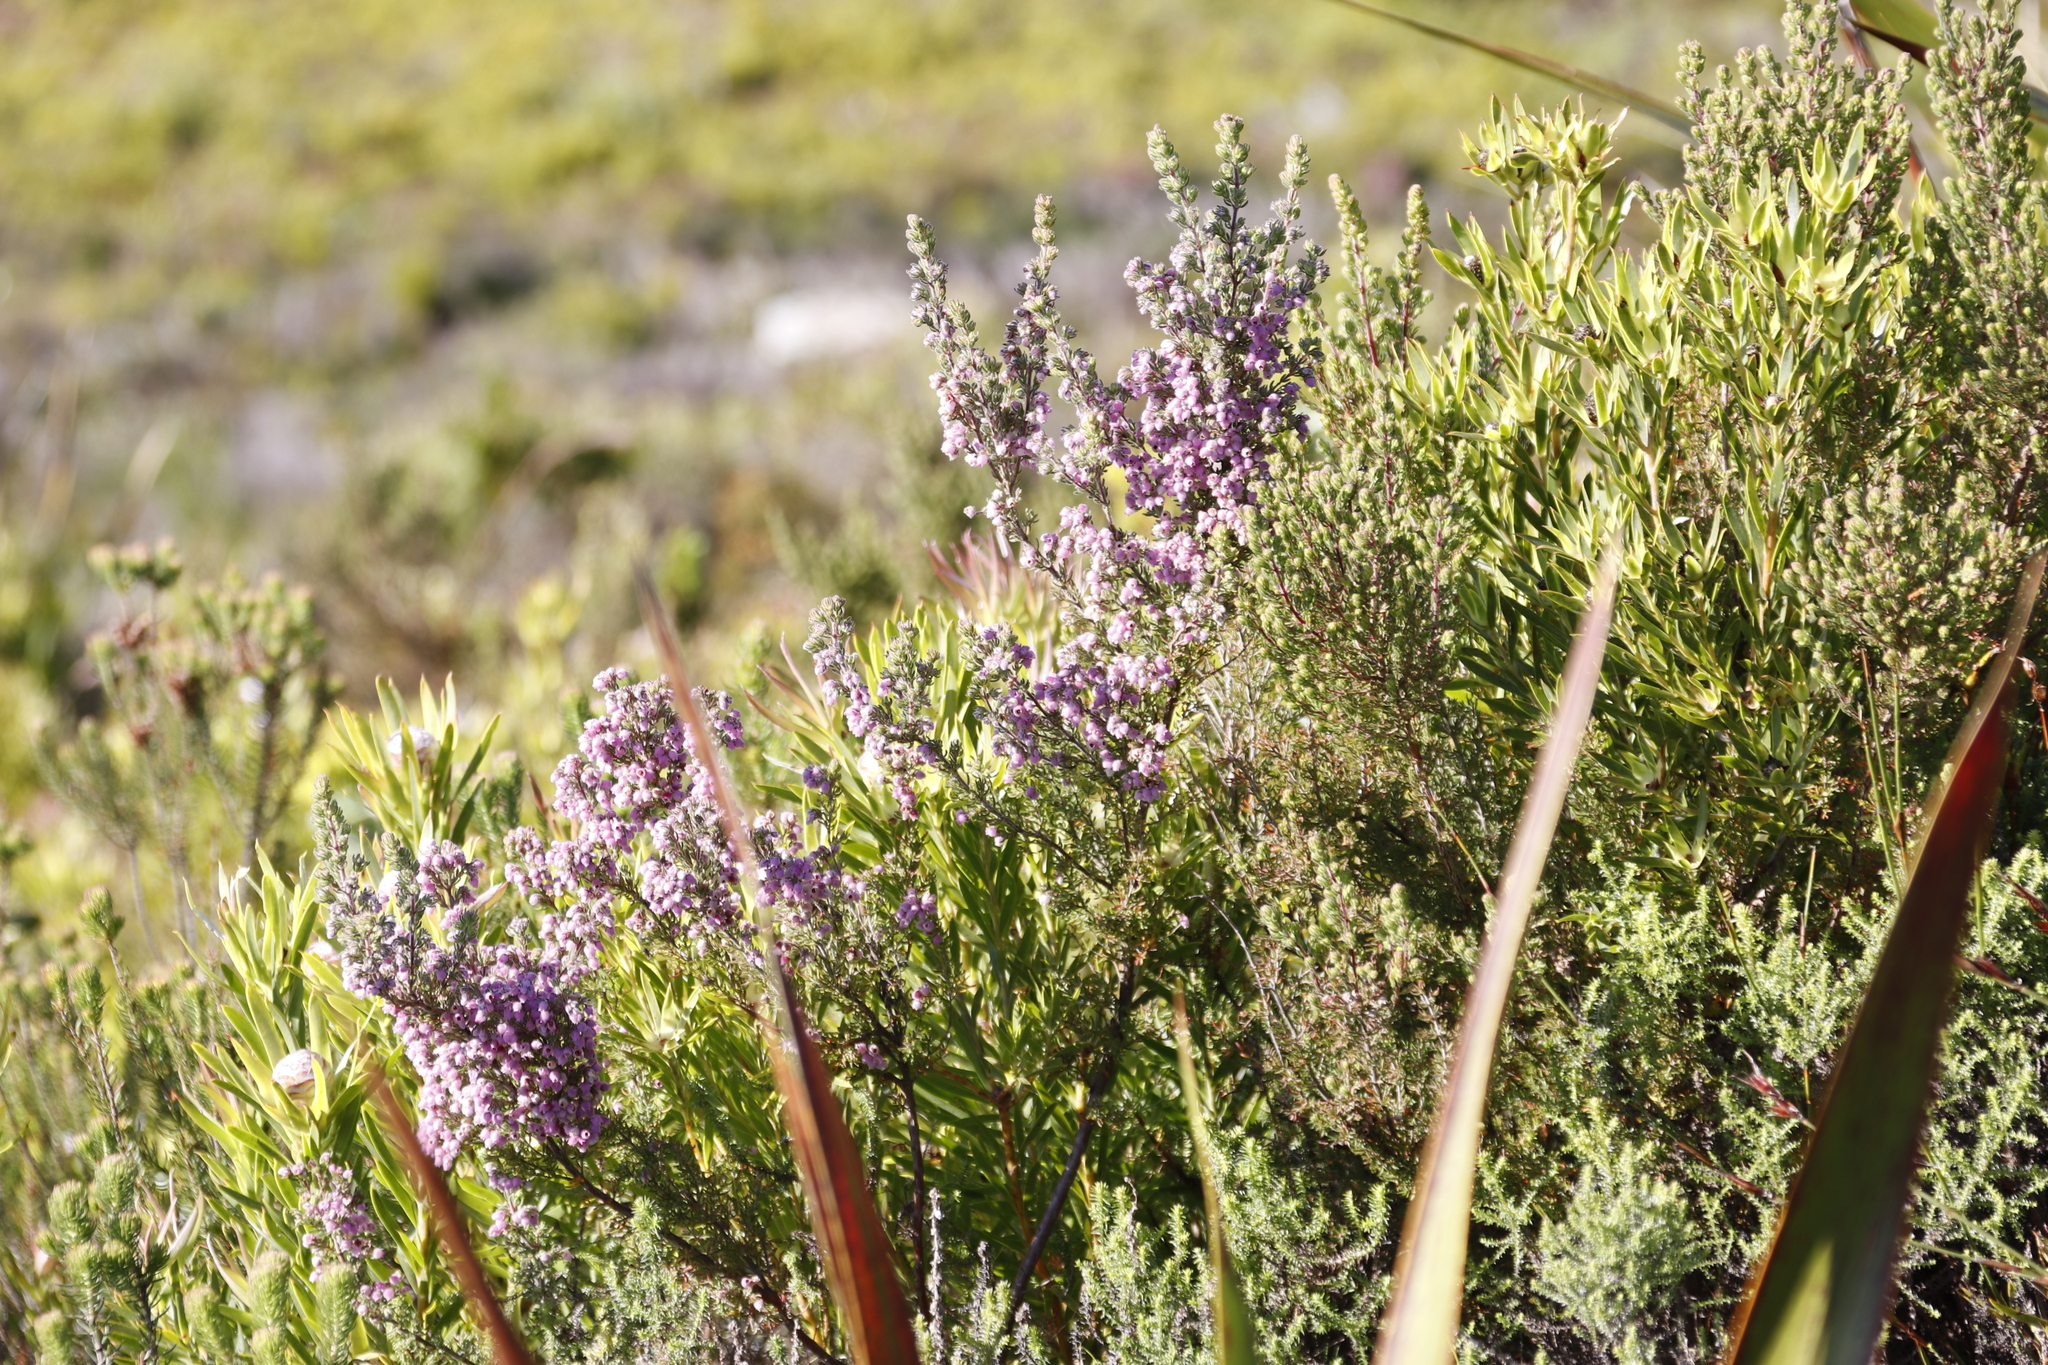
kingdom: Plantae
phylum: Tracheophyta
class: Magnoliopsida
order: Proteales
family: Proteaceae
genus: Leucadendron
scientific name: Leucadendron xanthoconus
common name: Sickle-leaf conebush
